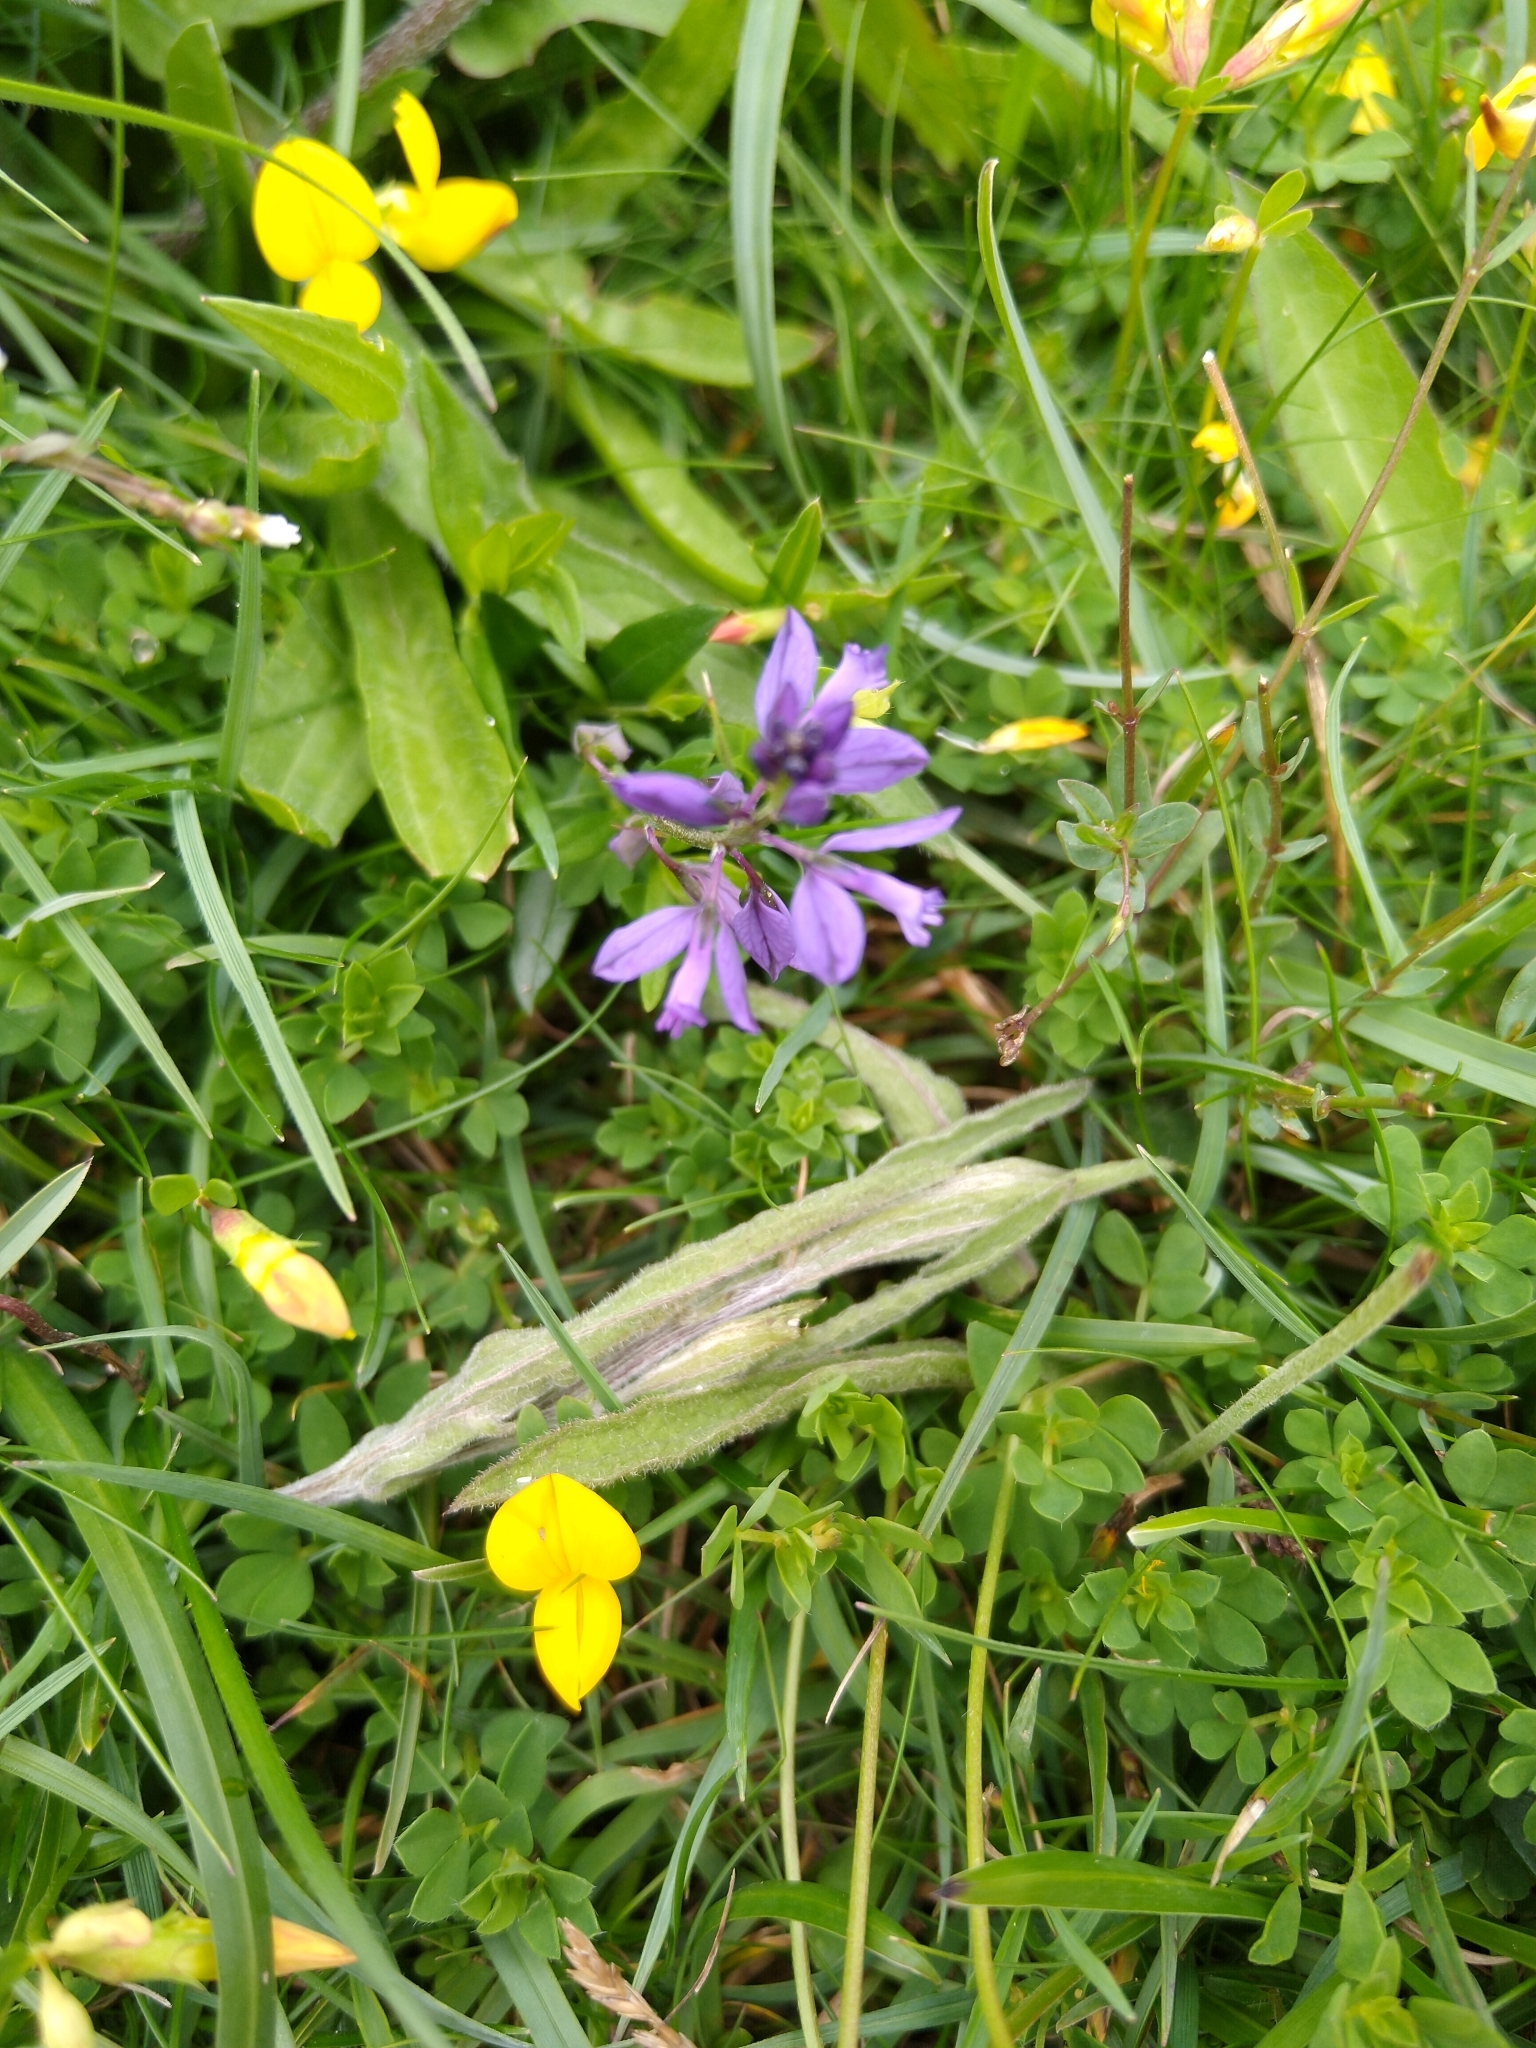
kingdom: Plantae
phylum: Tracheophyta
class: Magnoliopsida
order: Fabales
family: Polygalaceae
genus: Polygala
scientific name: Polygala vulgaris
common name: Common milkwort
